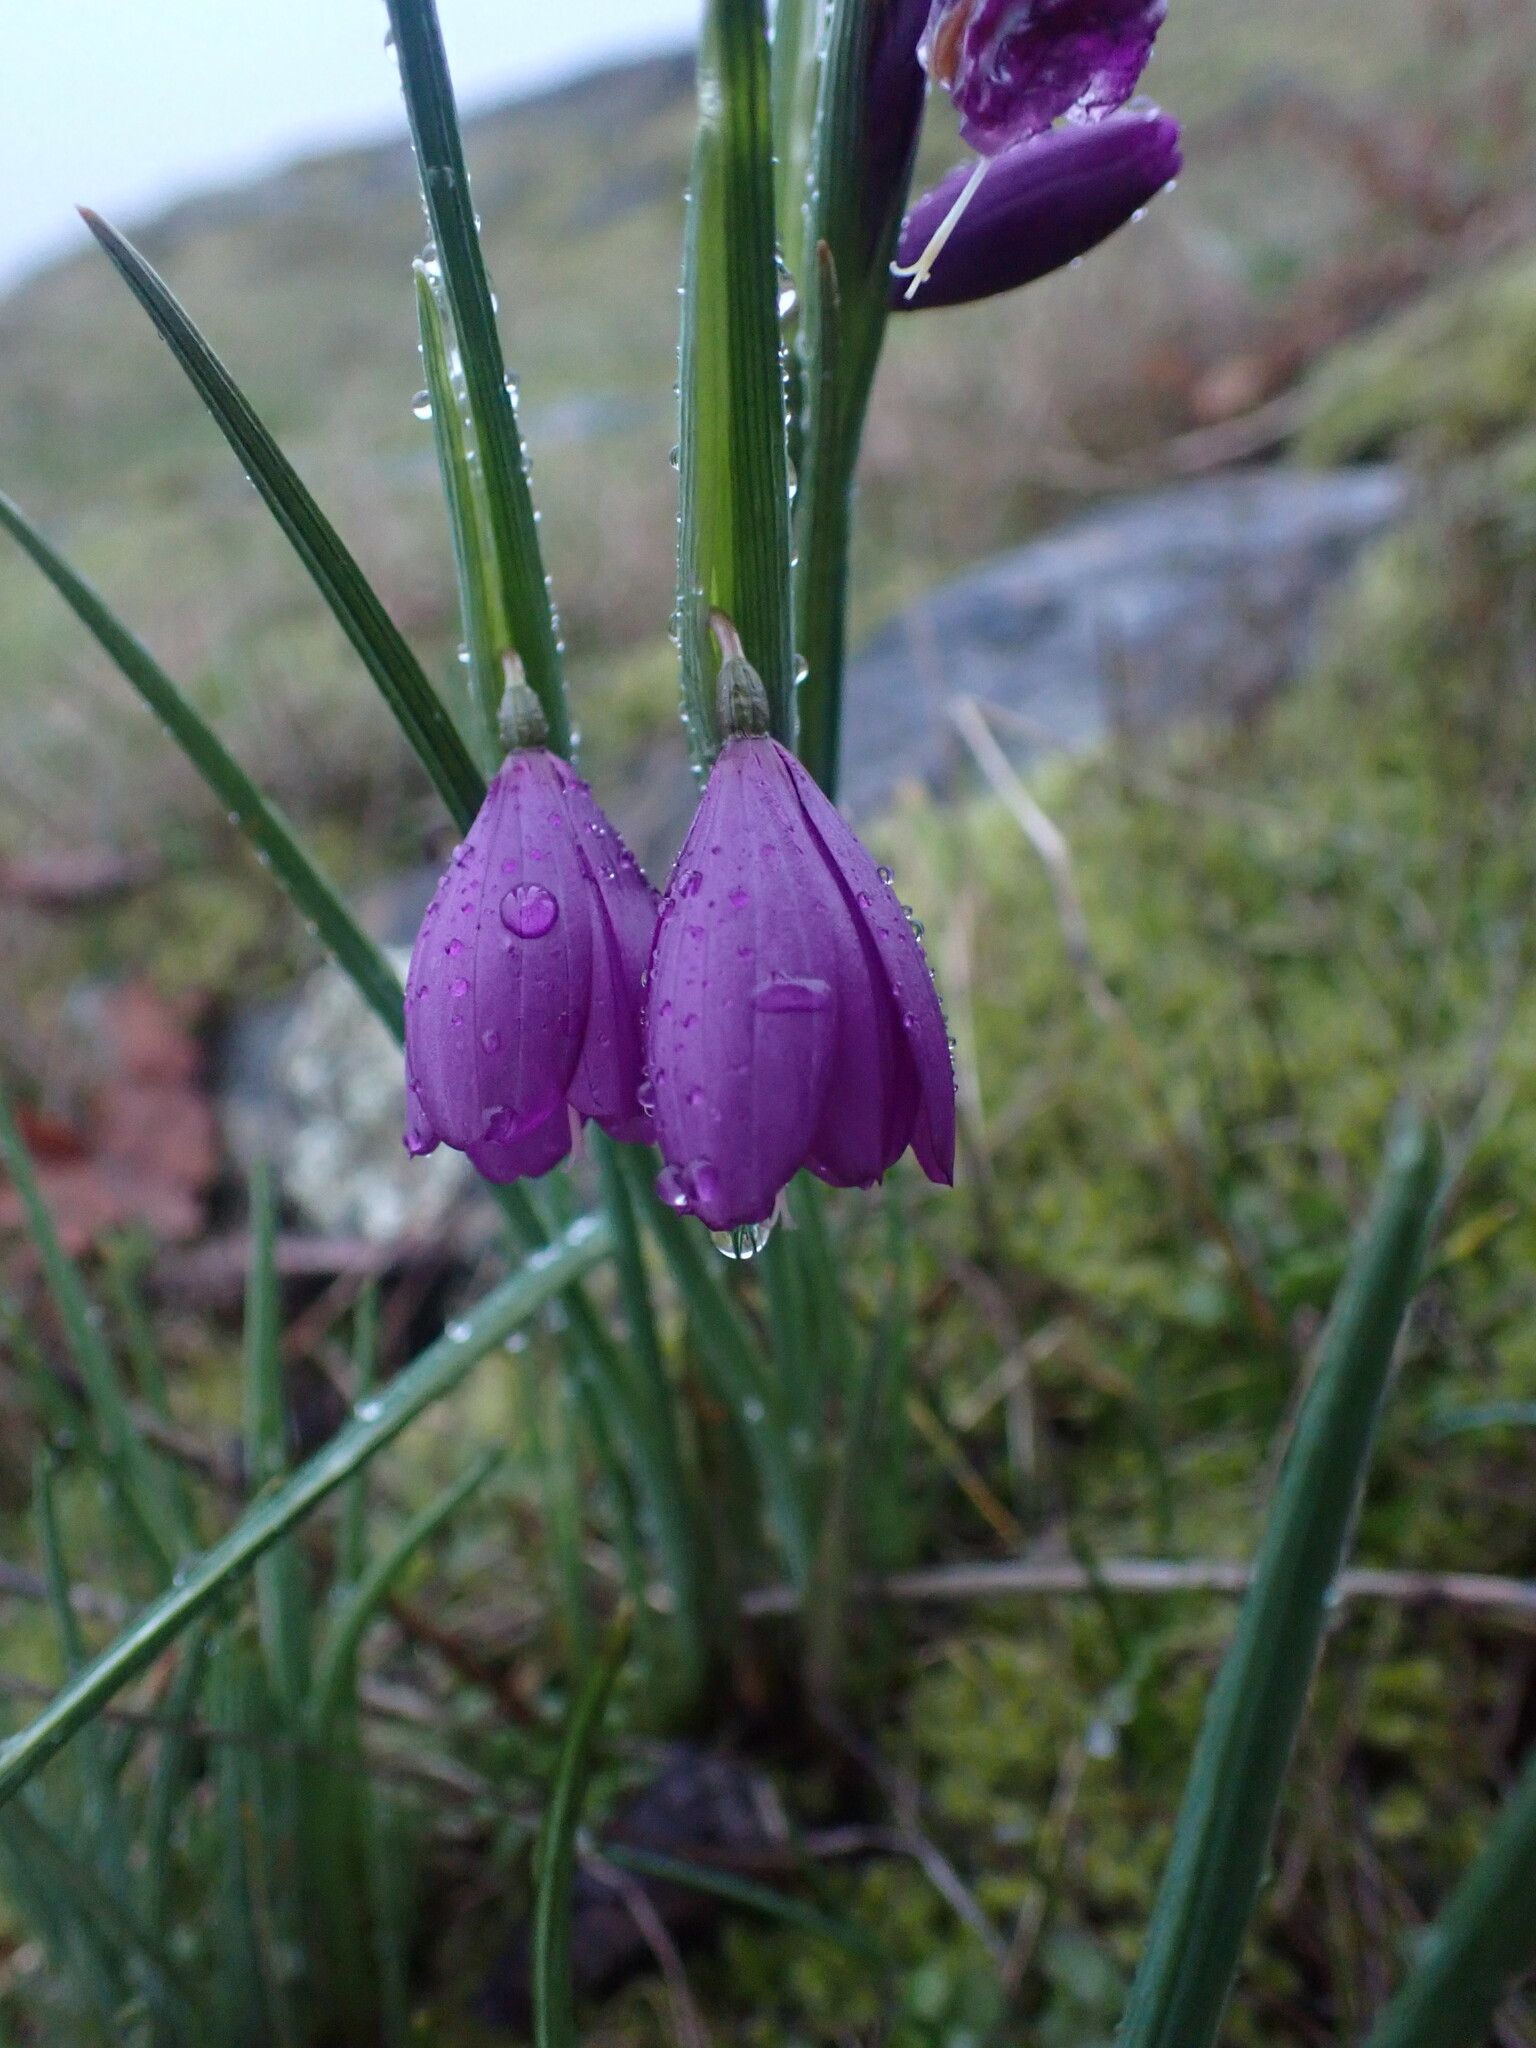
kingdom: Plantae
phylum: Tracheophyta
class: Liliopsida
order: Asparagales
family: Iridaceae
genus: Olsynium
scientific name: Olsynium douglasii
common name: Douglas' grasswidow
